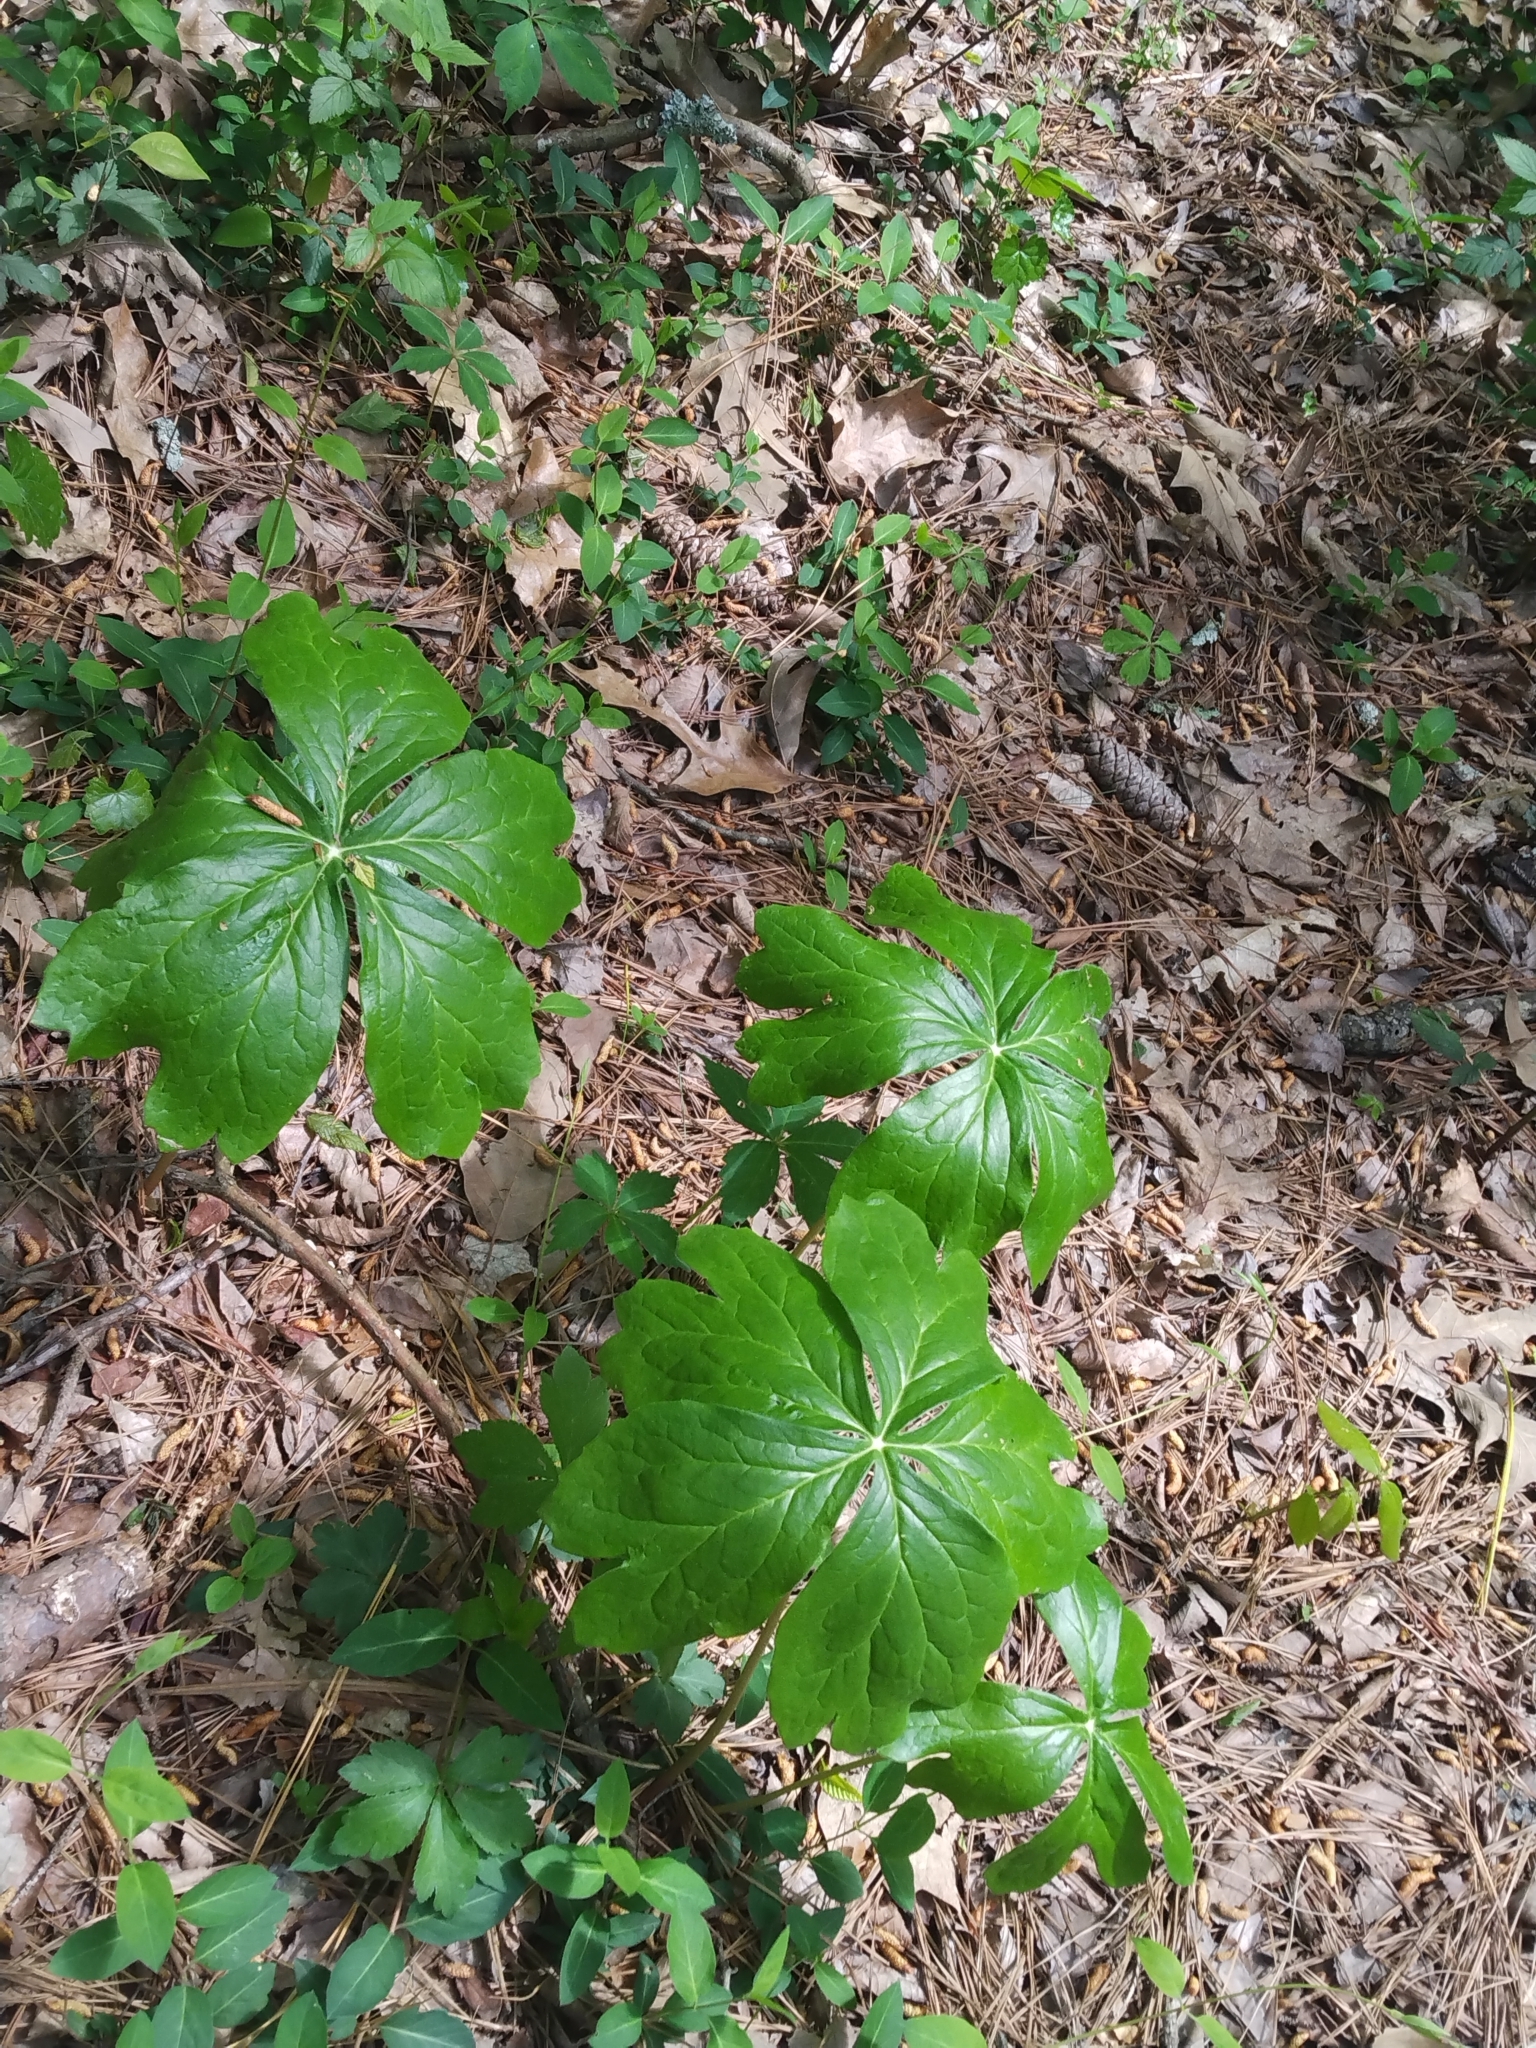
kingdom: Plantae
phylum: Tracheophyta
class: Magnoliopsida
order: Ranunculales
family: Berberidaceae
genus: Podophyllum
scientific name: Podophyllum peltatum
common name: Wild mandrake
